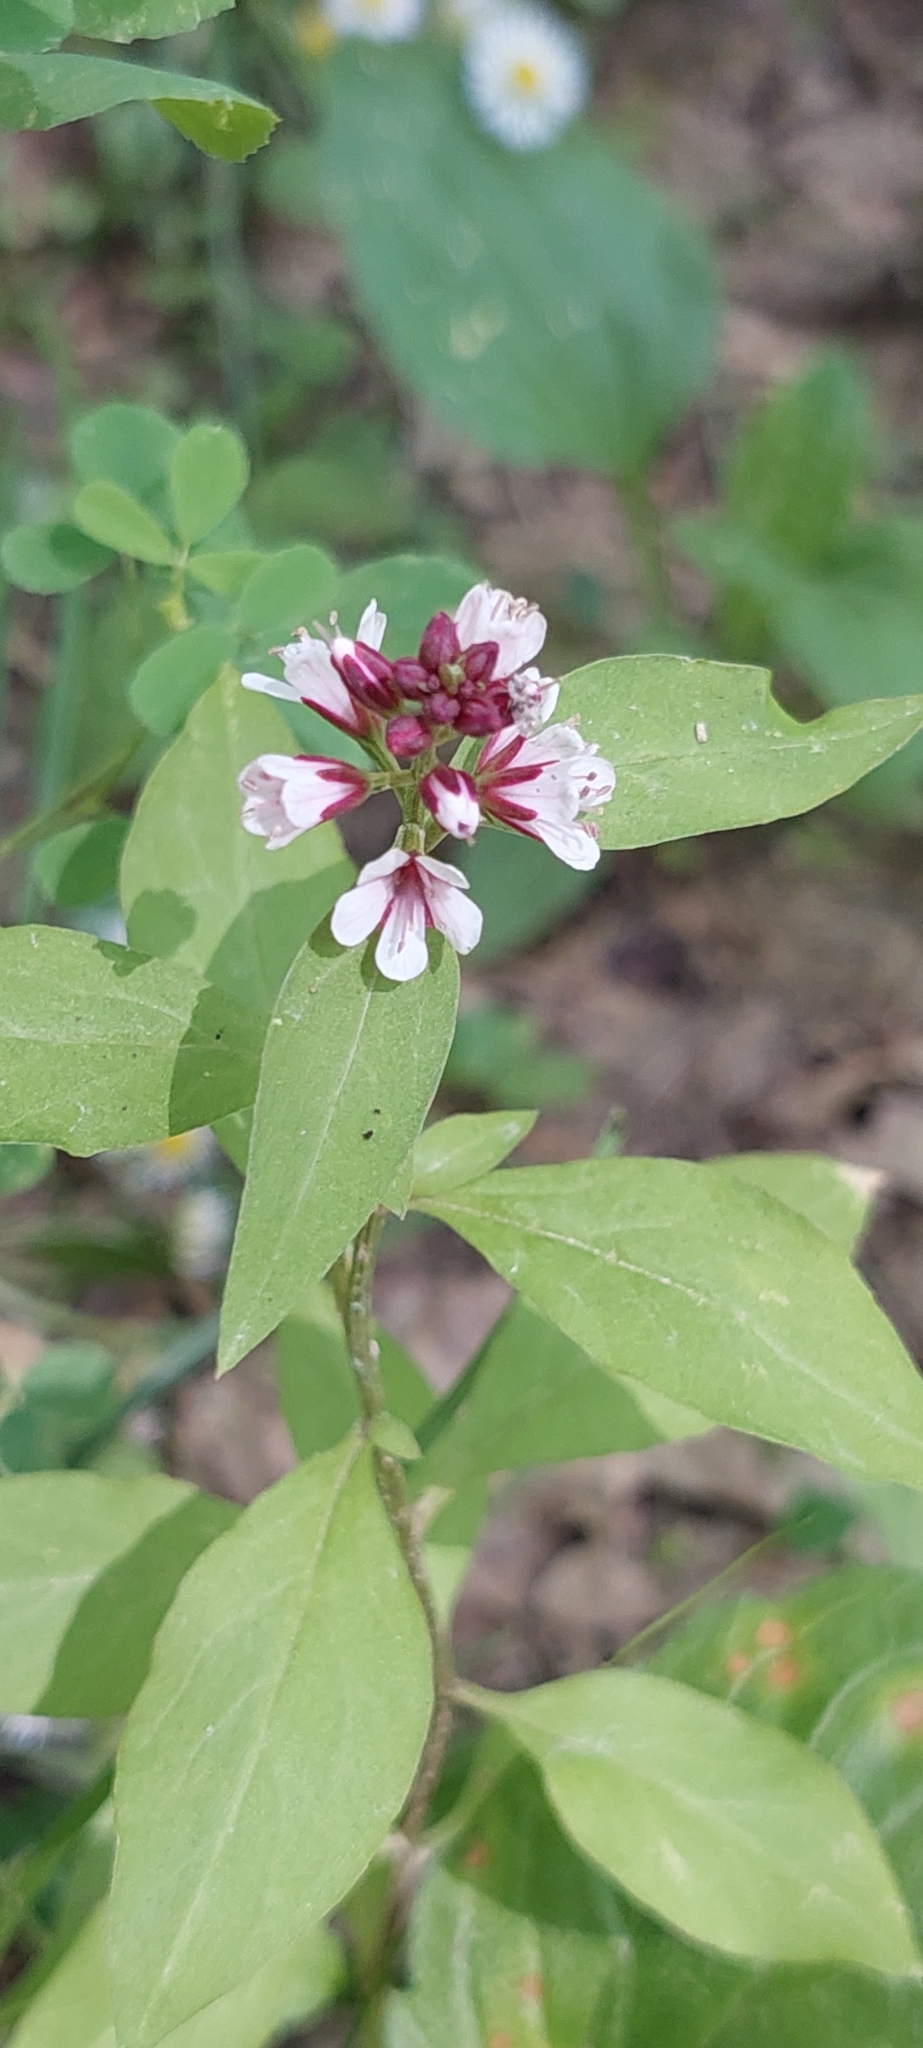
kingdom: Plantae
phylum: Tracheophyta
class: Magnoliopsida
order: Ericales
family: Primulaceae
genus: Lysimachia
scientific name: Lysimachia dubia
